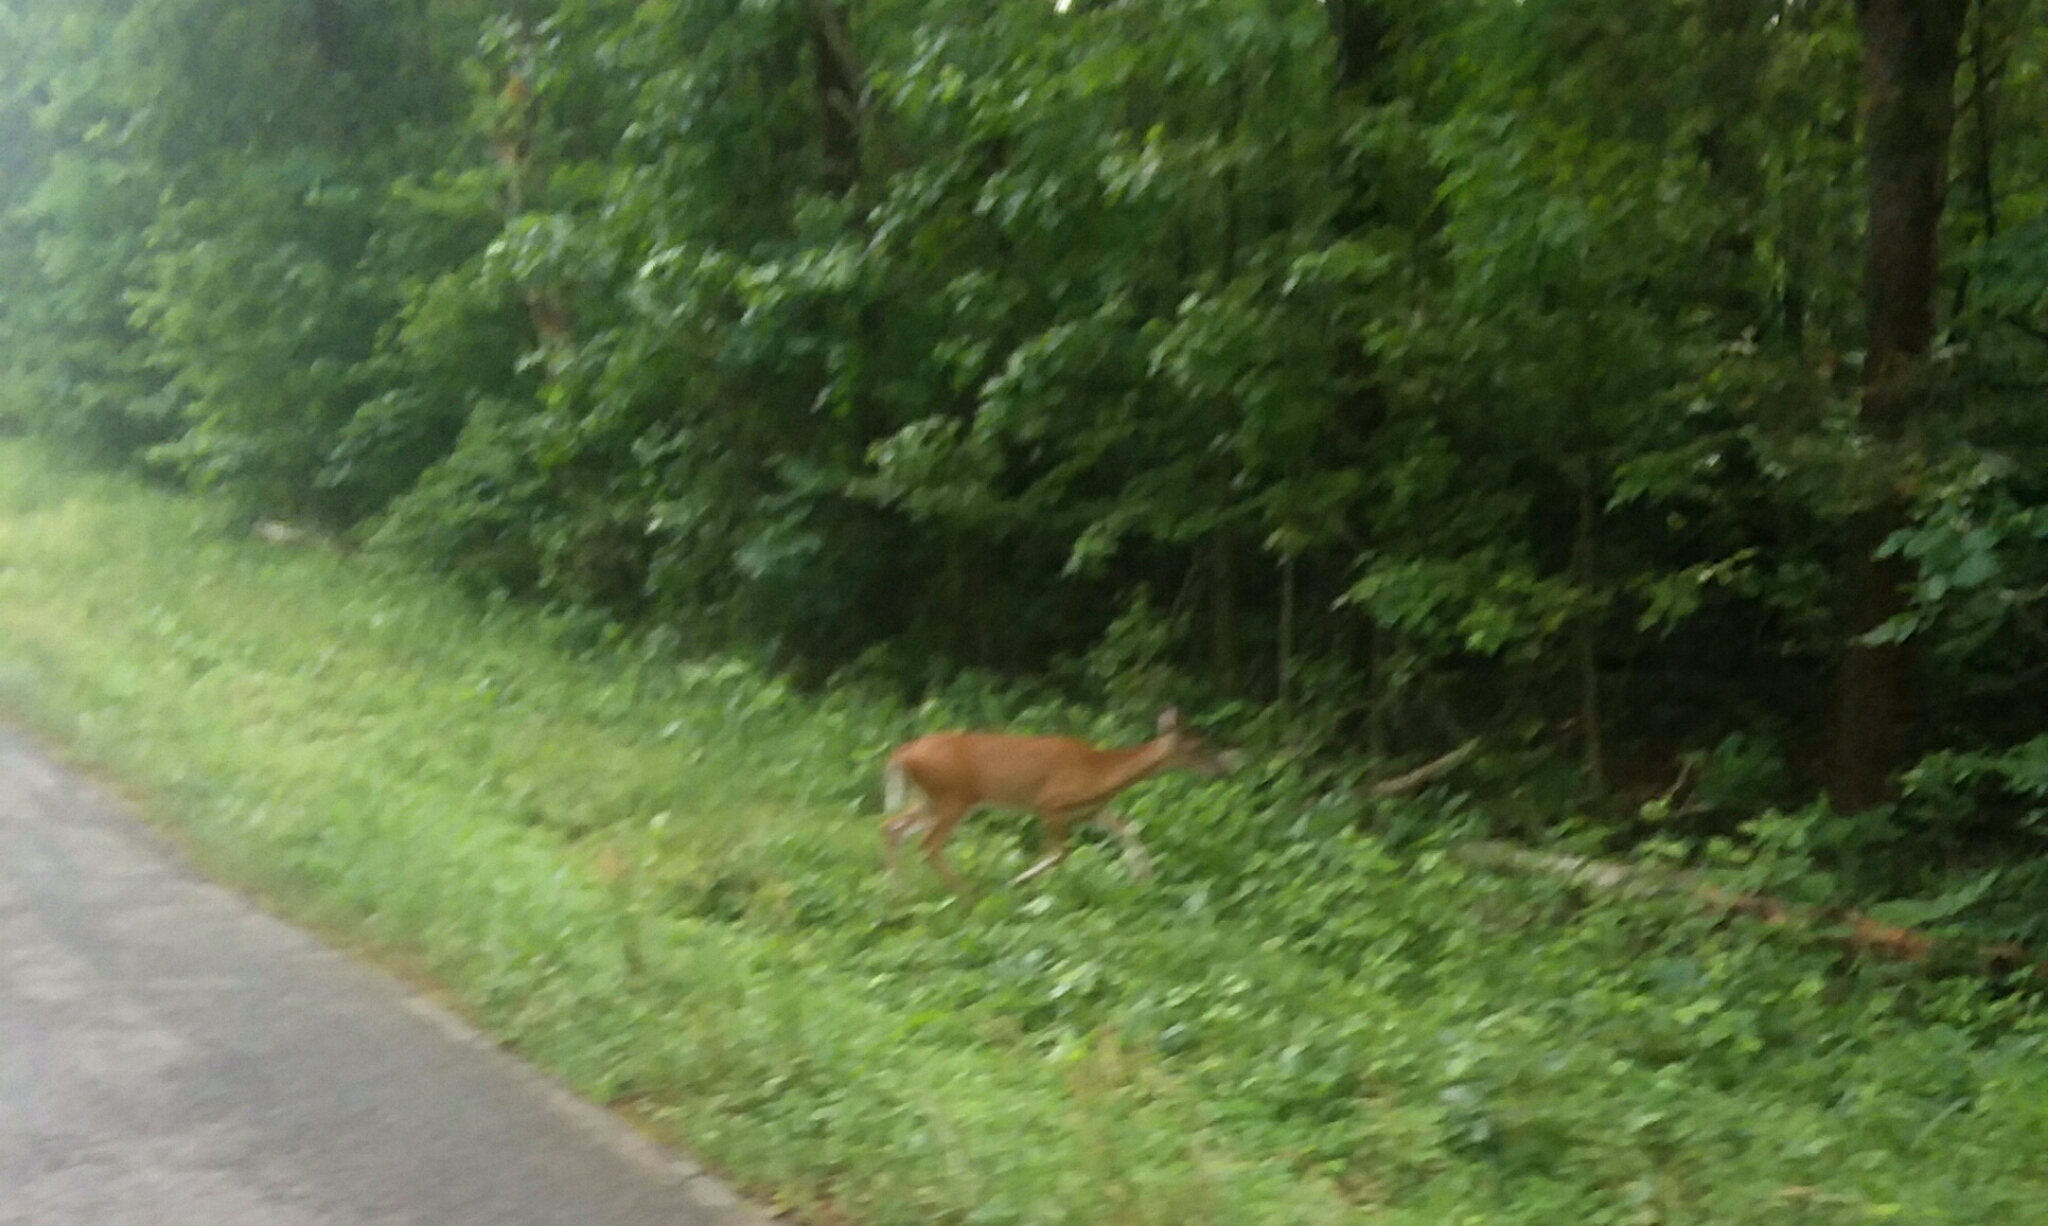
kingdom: Animalia
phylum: Chordata
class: Mammalia
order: Artiodactyla
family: Cervidae
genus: Odocoileus
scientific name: Odocoileus virginianus
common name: White-tailed deer
